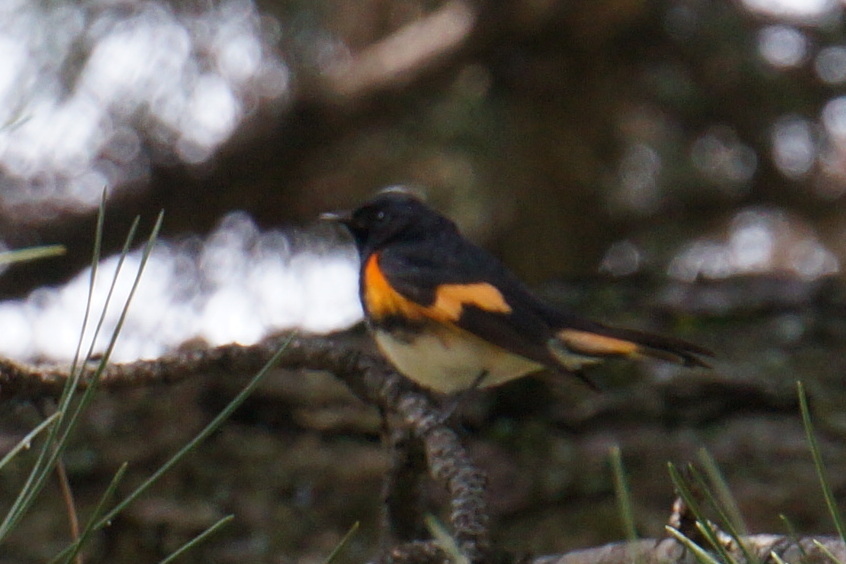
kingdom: Animalia
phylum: Chordata
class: Aves
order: Passeriformes
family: Parulidae
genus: Setophaga
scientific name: Setophaga ruticilla
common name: American redstart
